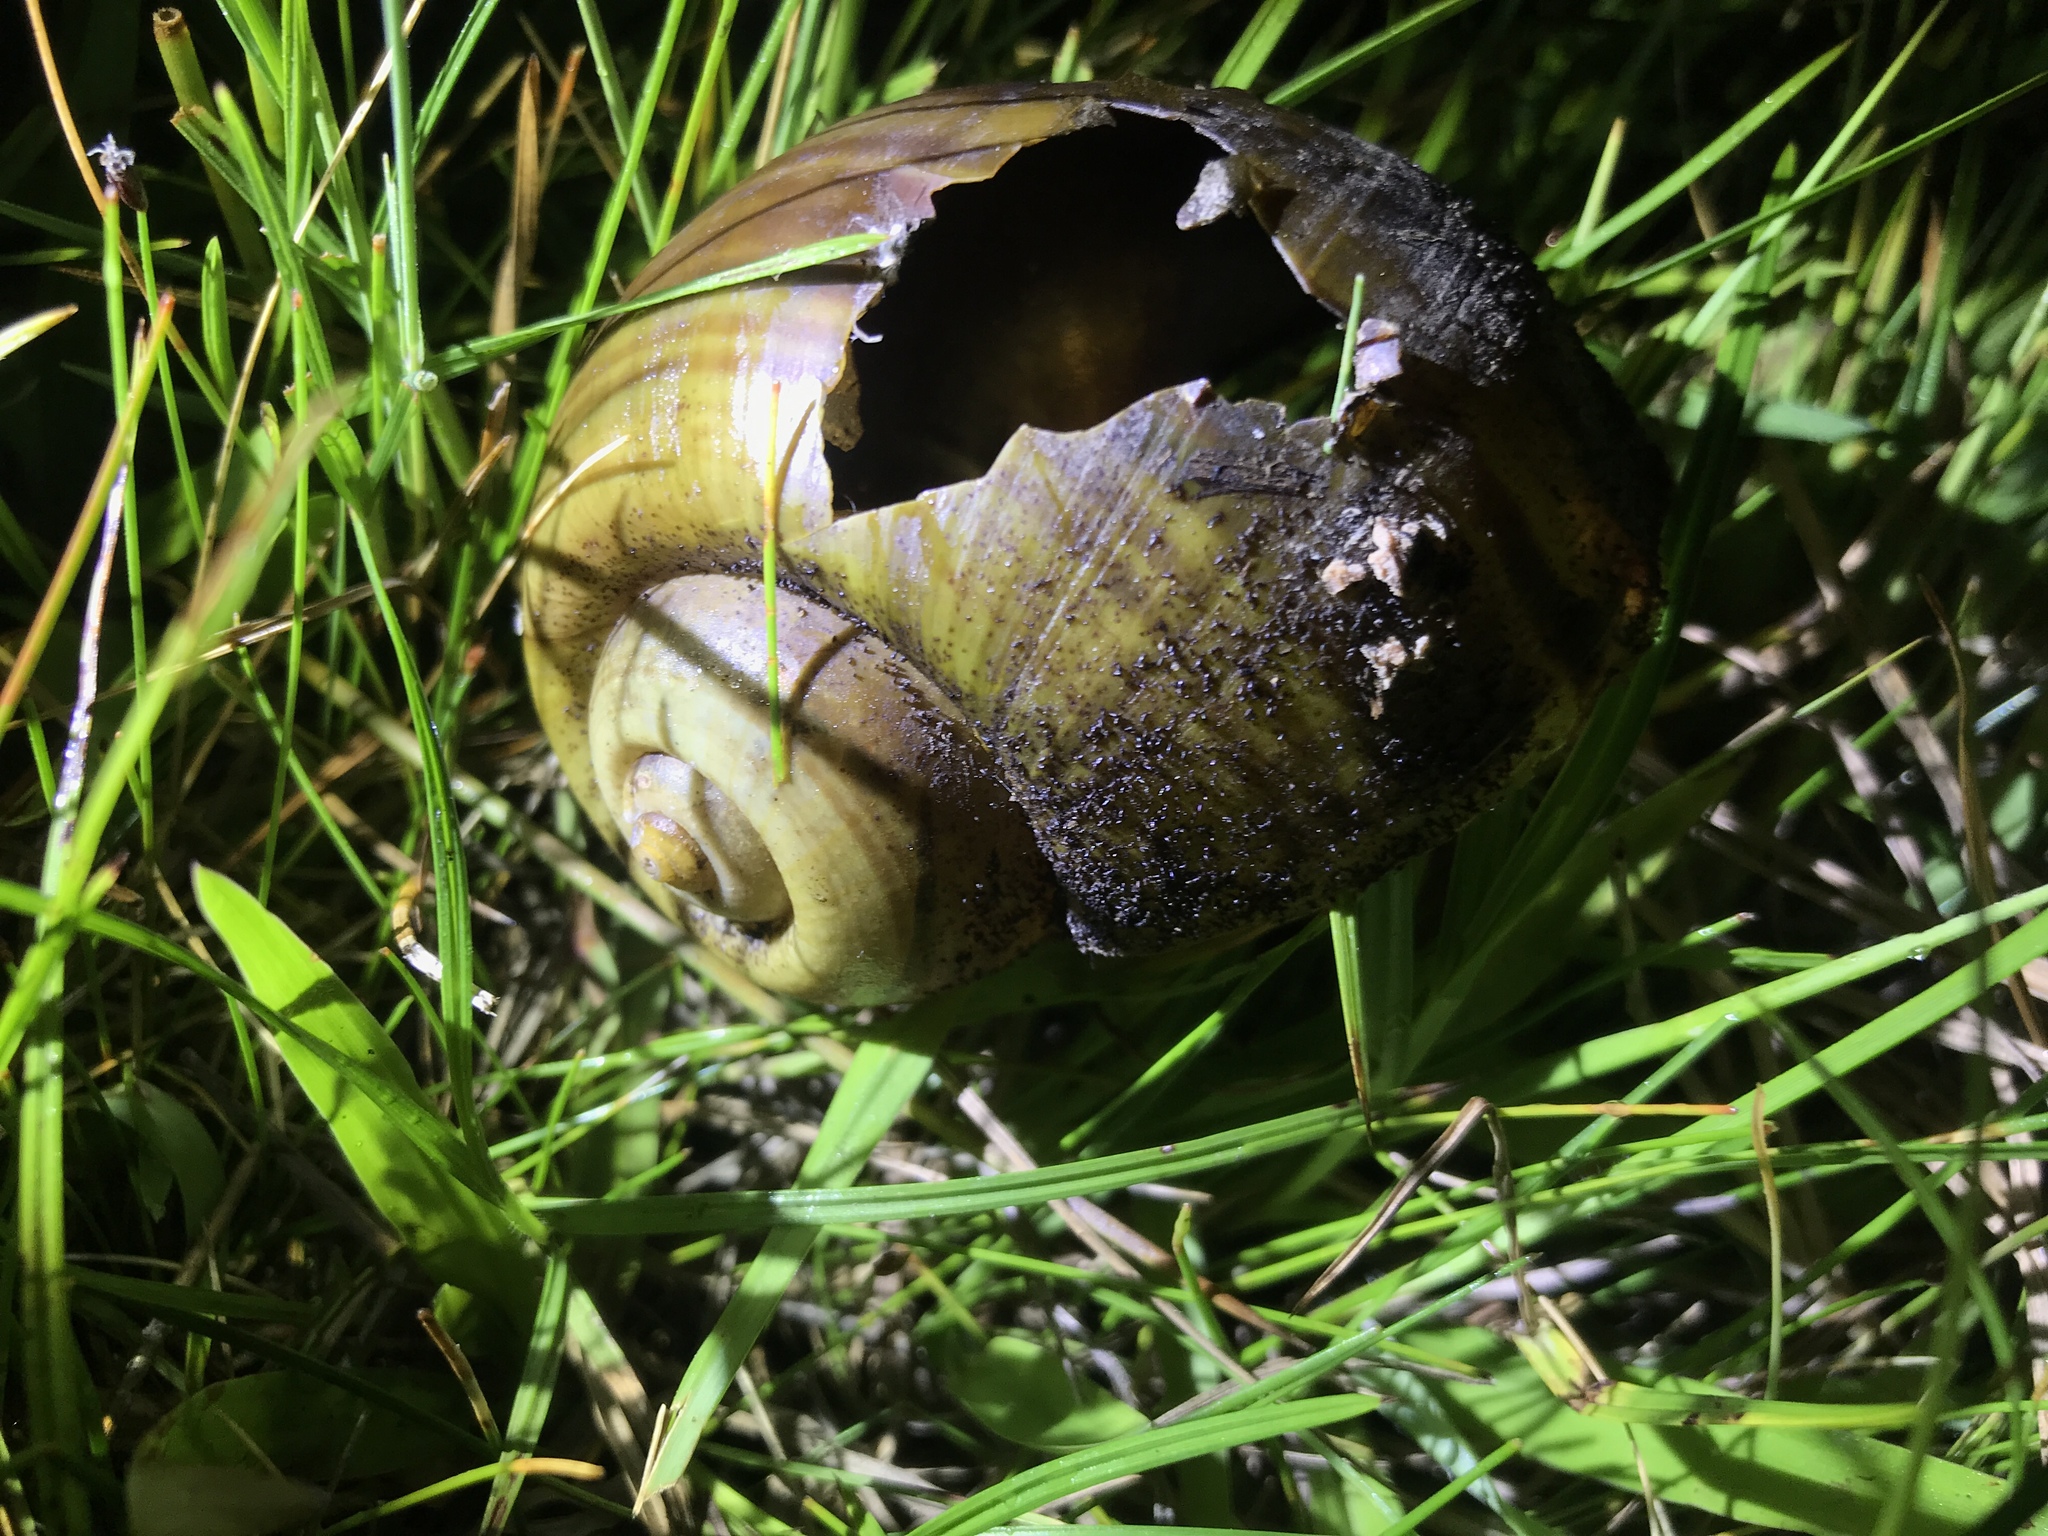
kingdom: Animalia
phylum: Mollusca
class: Gastropoda
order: Architaenioglossa
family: Ampullariidae
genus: Pomacea
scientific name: Pomacea canaliculata
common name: Channeled applesnail
